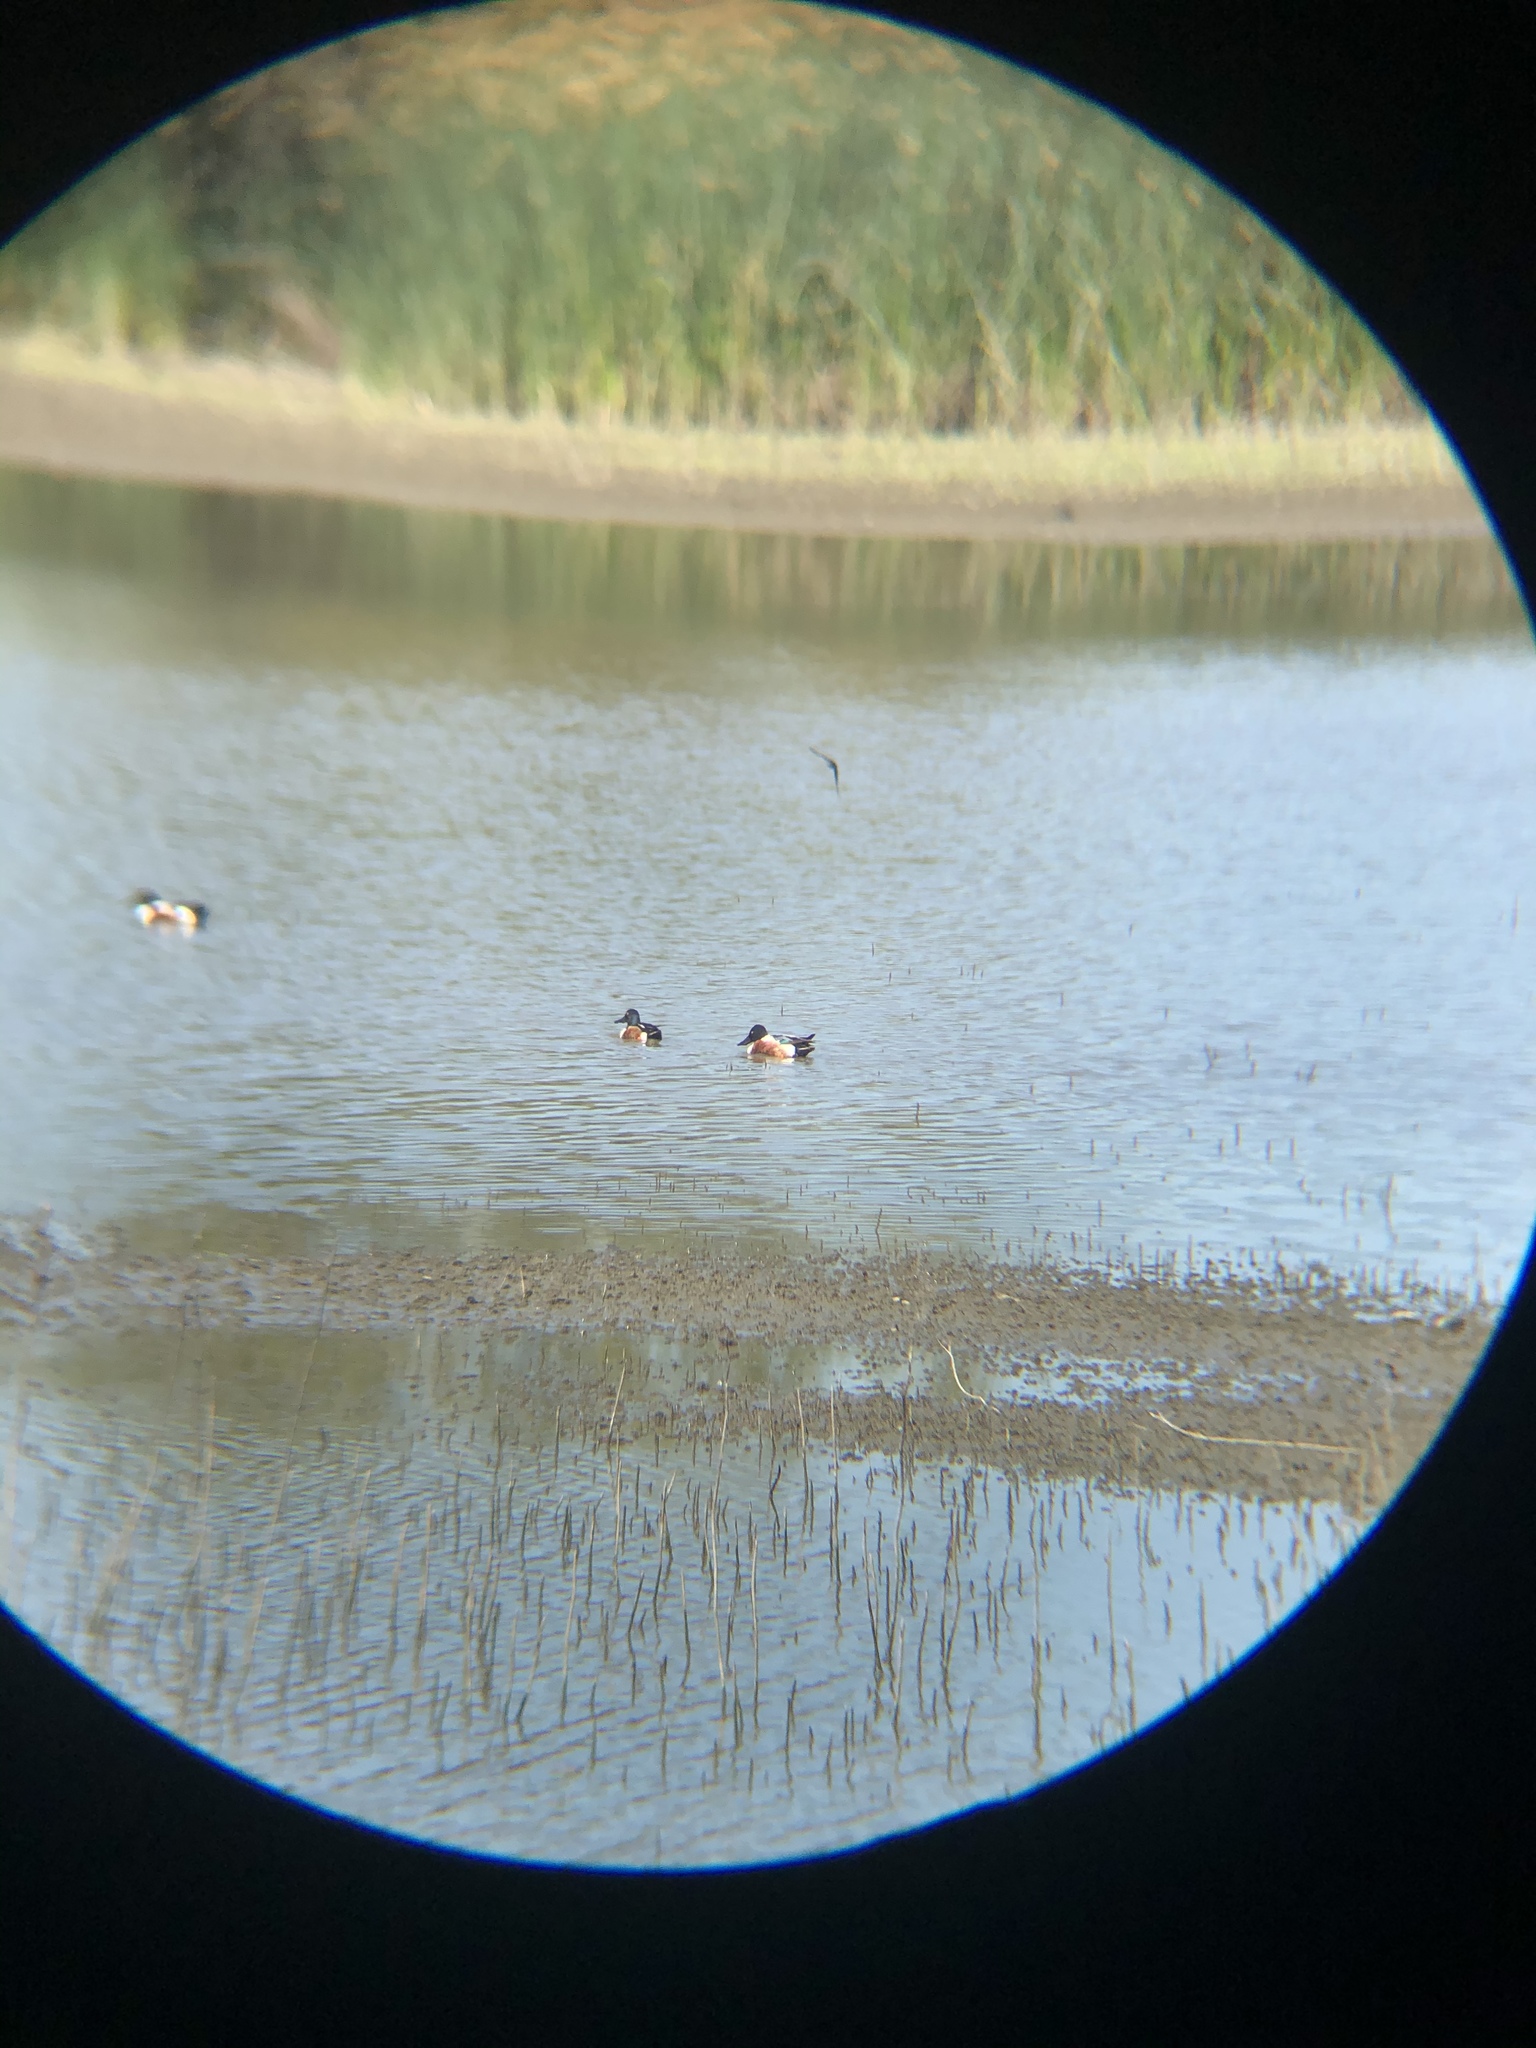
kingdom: Animalia
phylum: Chordata
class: Aves
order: Anseriformes
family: Anatidae
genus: Spatula
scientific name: Spatula clypeata
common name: Northern shoveler
